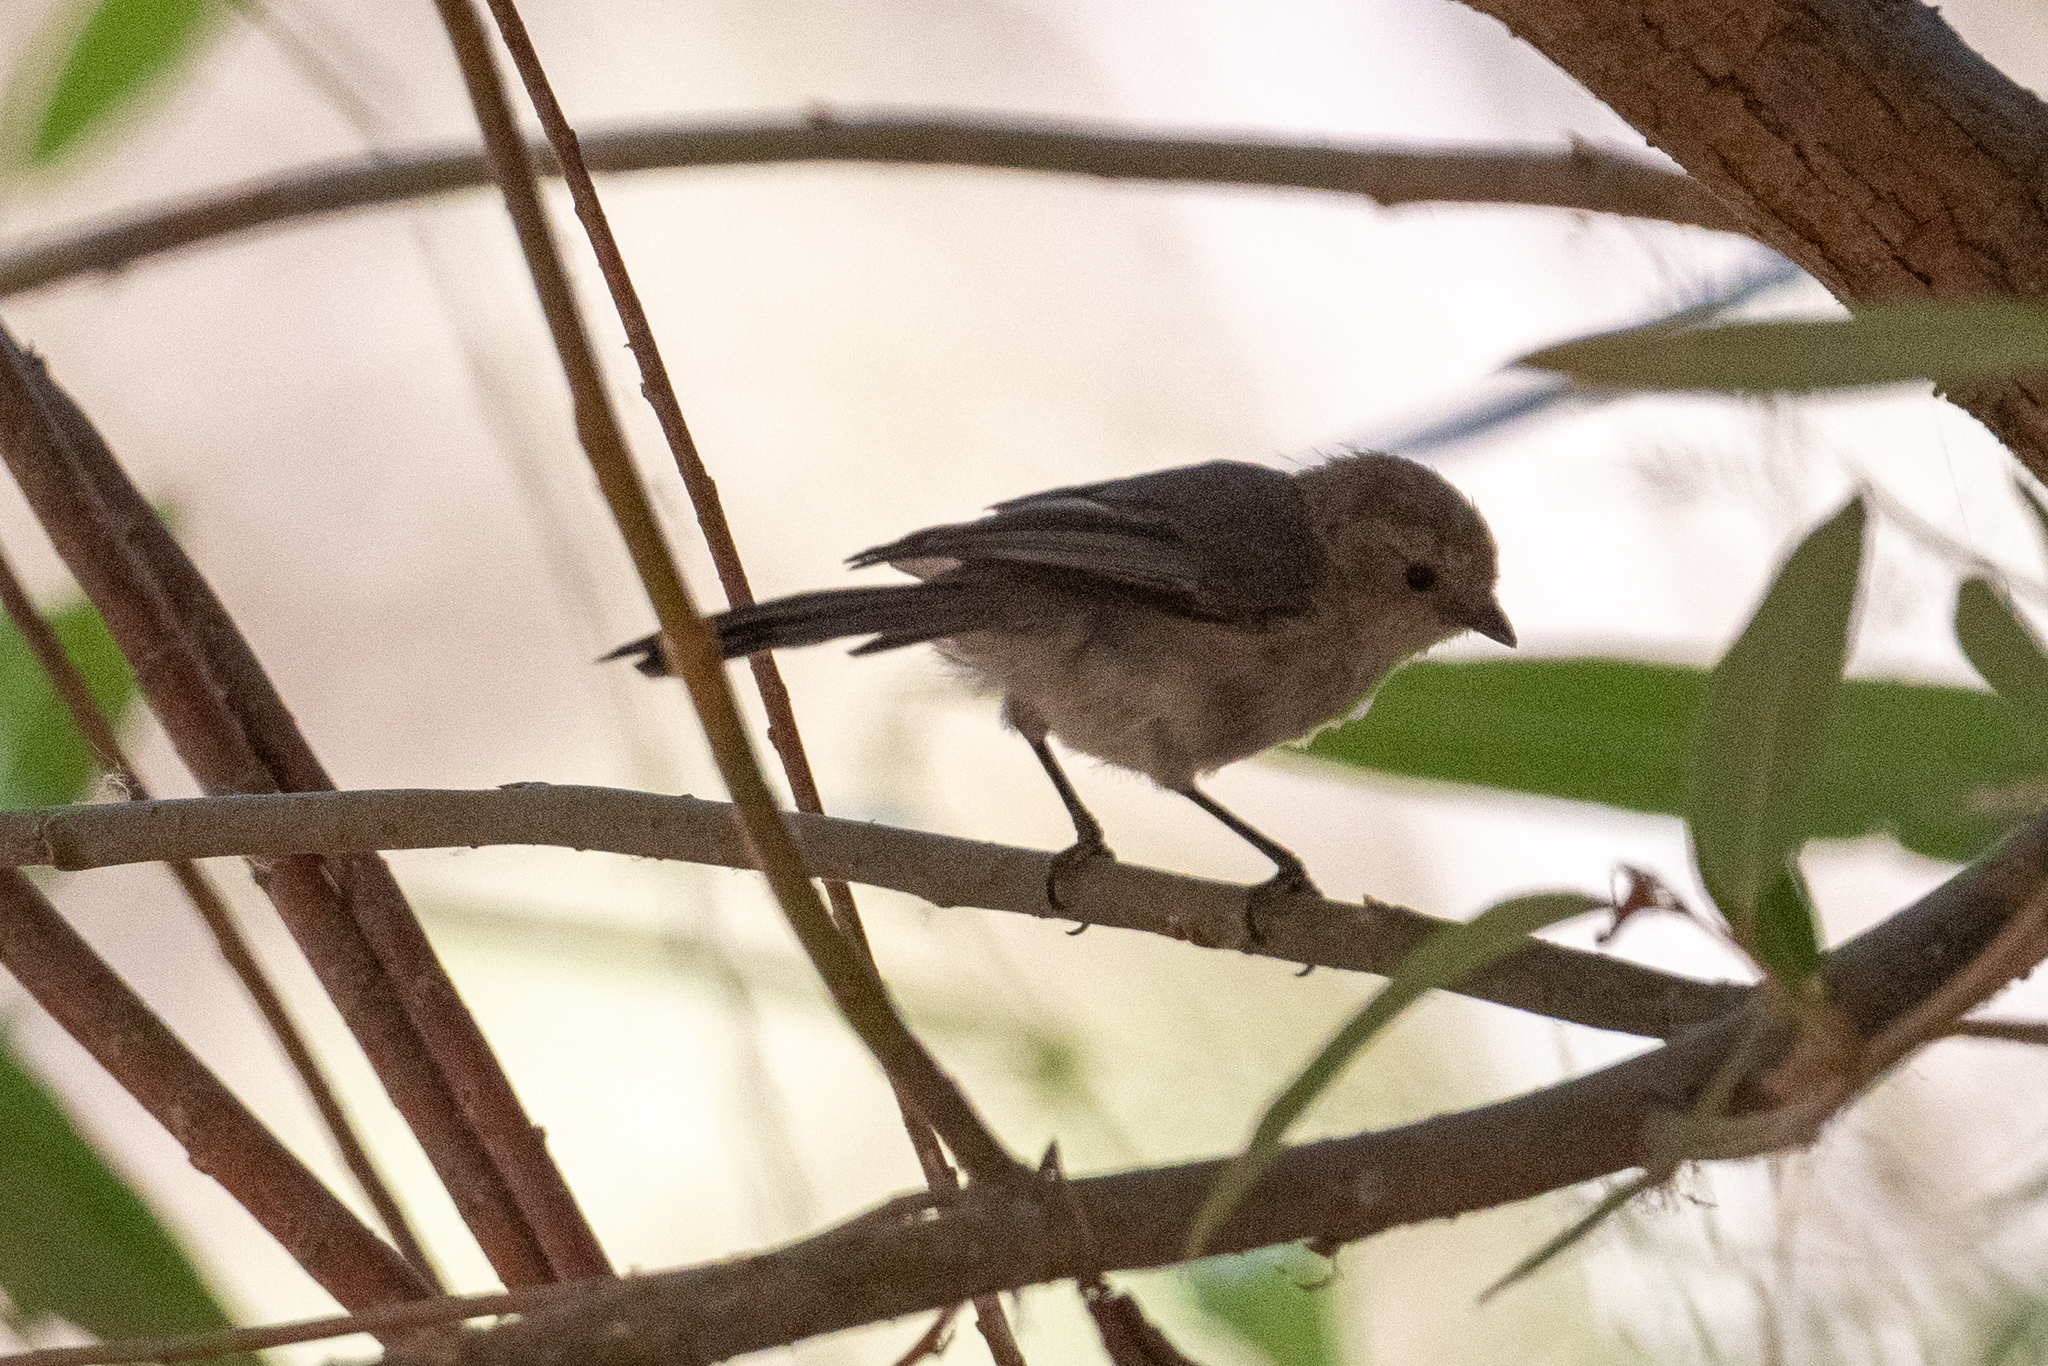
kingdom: Animalia
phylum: Chordata
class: Aves
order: Passeriformes
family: Aegithalidae
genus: Psaltriparus
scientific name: Psaltriparus minimus
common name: American bushtit
